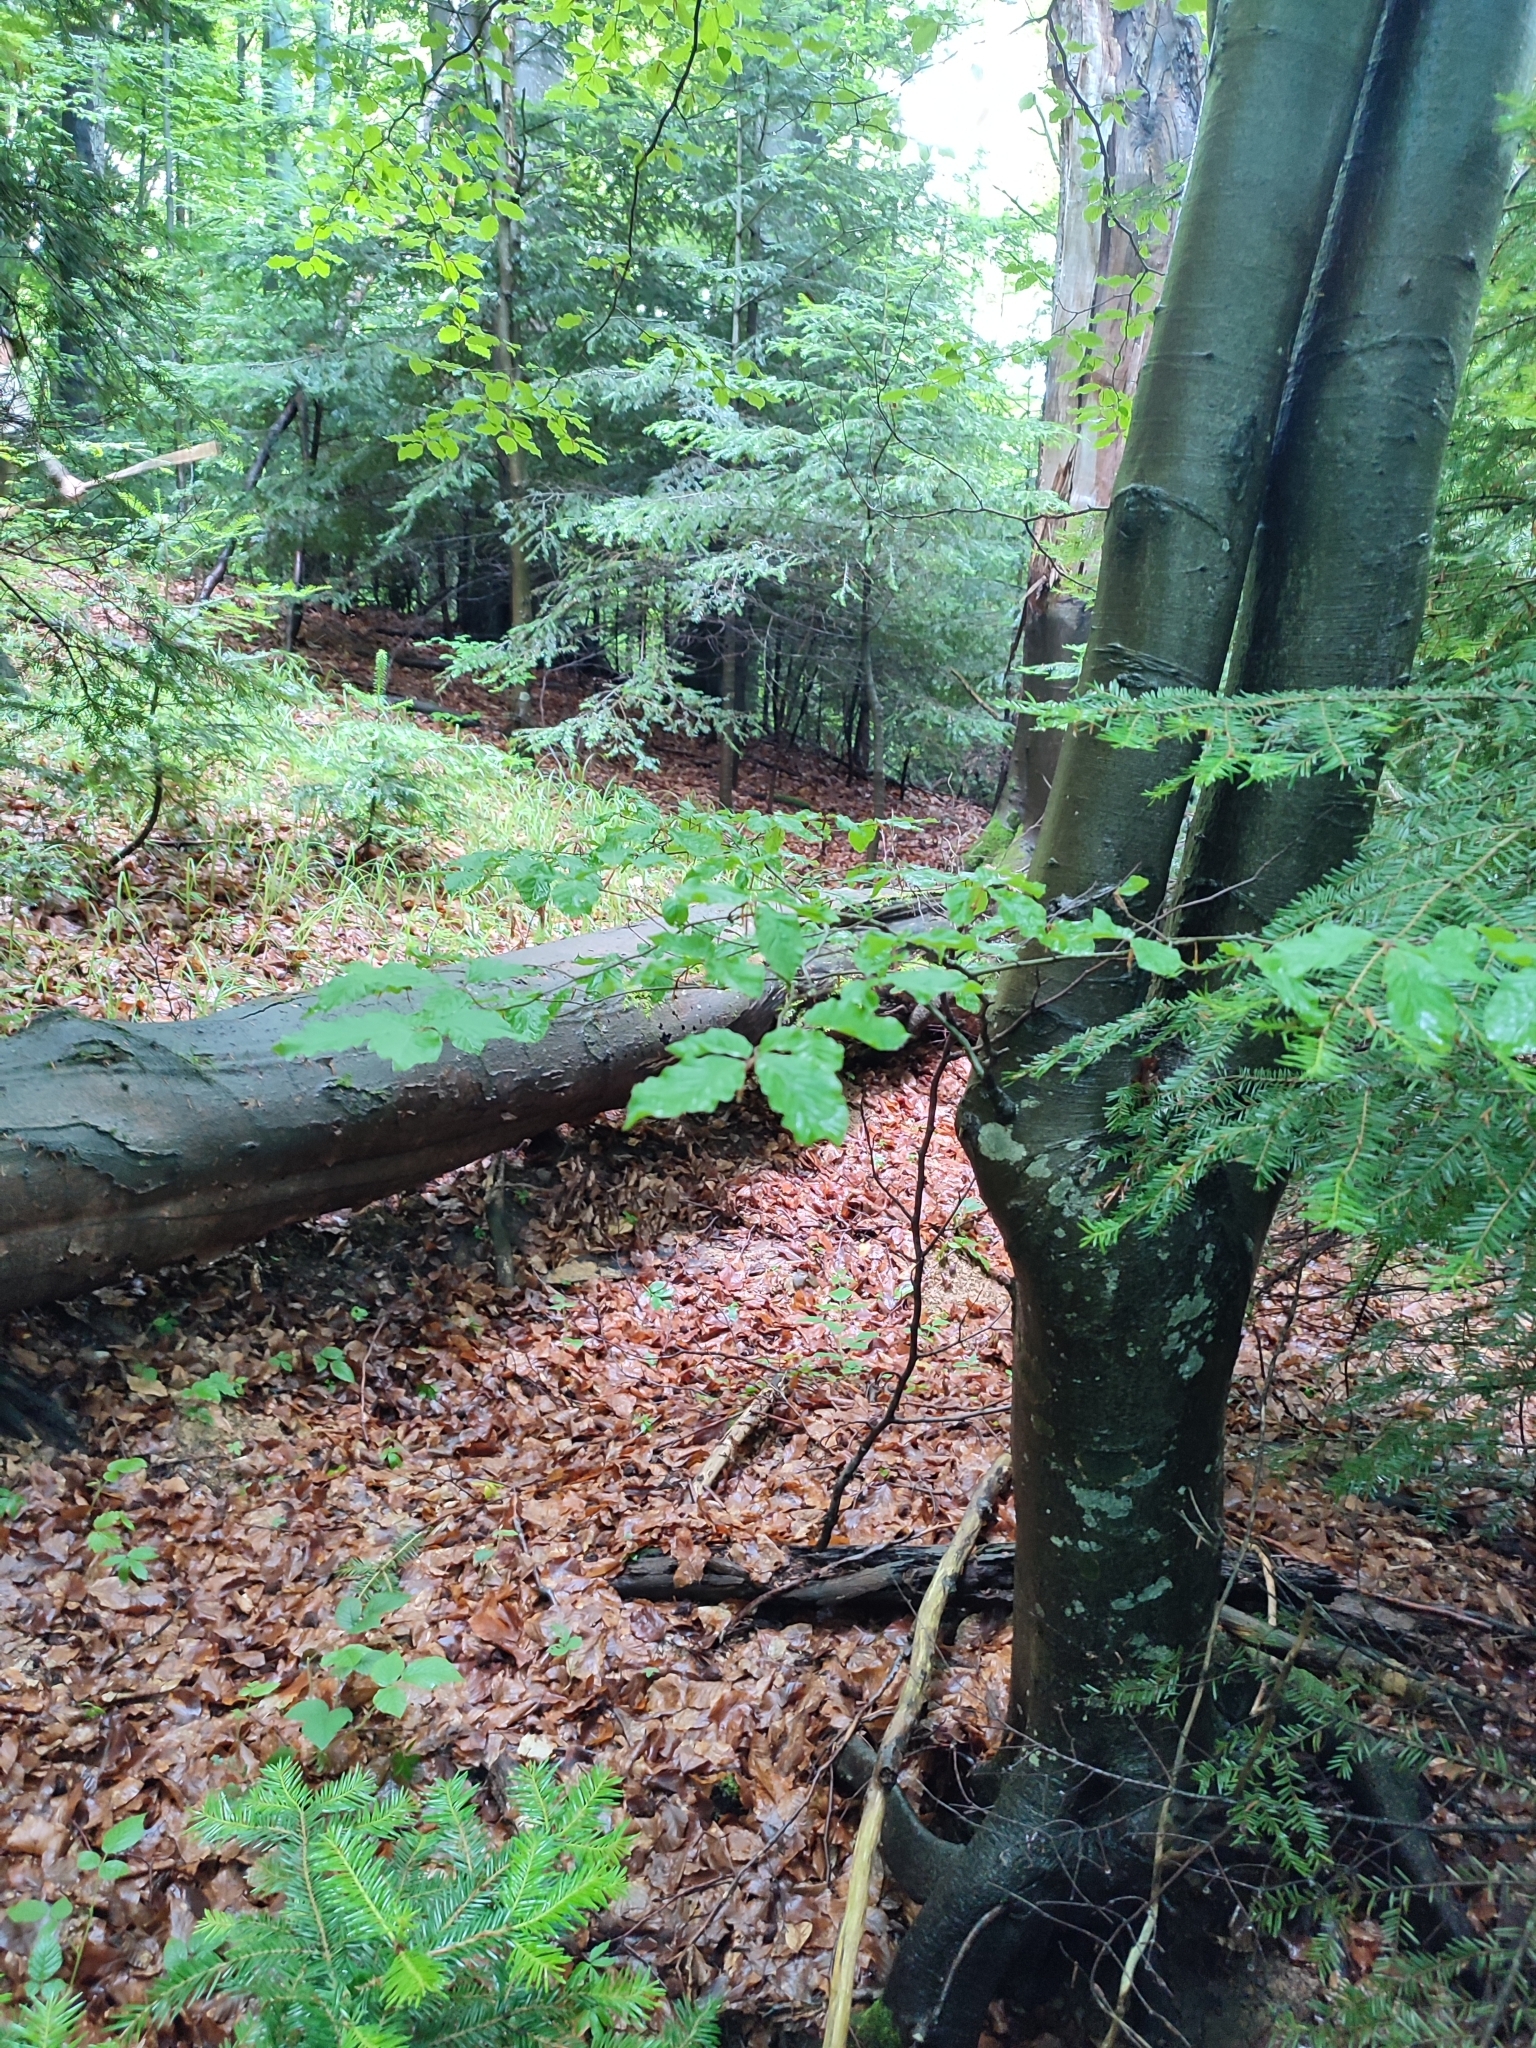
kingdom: Plantae
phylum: Tracheophyta
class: Magnoliopsida
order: Fagales
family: Fagaceae
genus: Fagus
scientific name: Fagus sylvatica
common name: Beech
